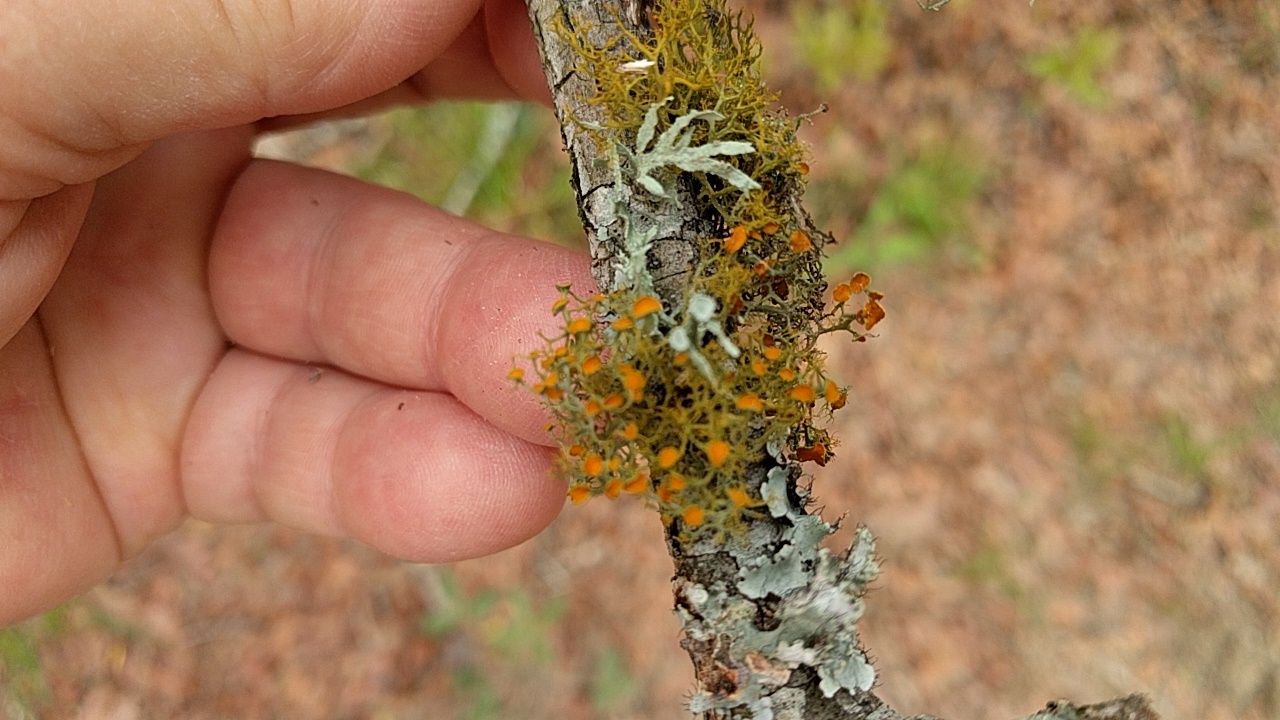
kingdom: Fungi
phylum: Ascomycota
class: Lecanoromycetes
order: Teloschistales
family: Teloschistaceae
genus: Teloschistes
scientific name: Teloschistes exilis
